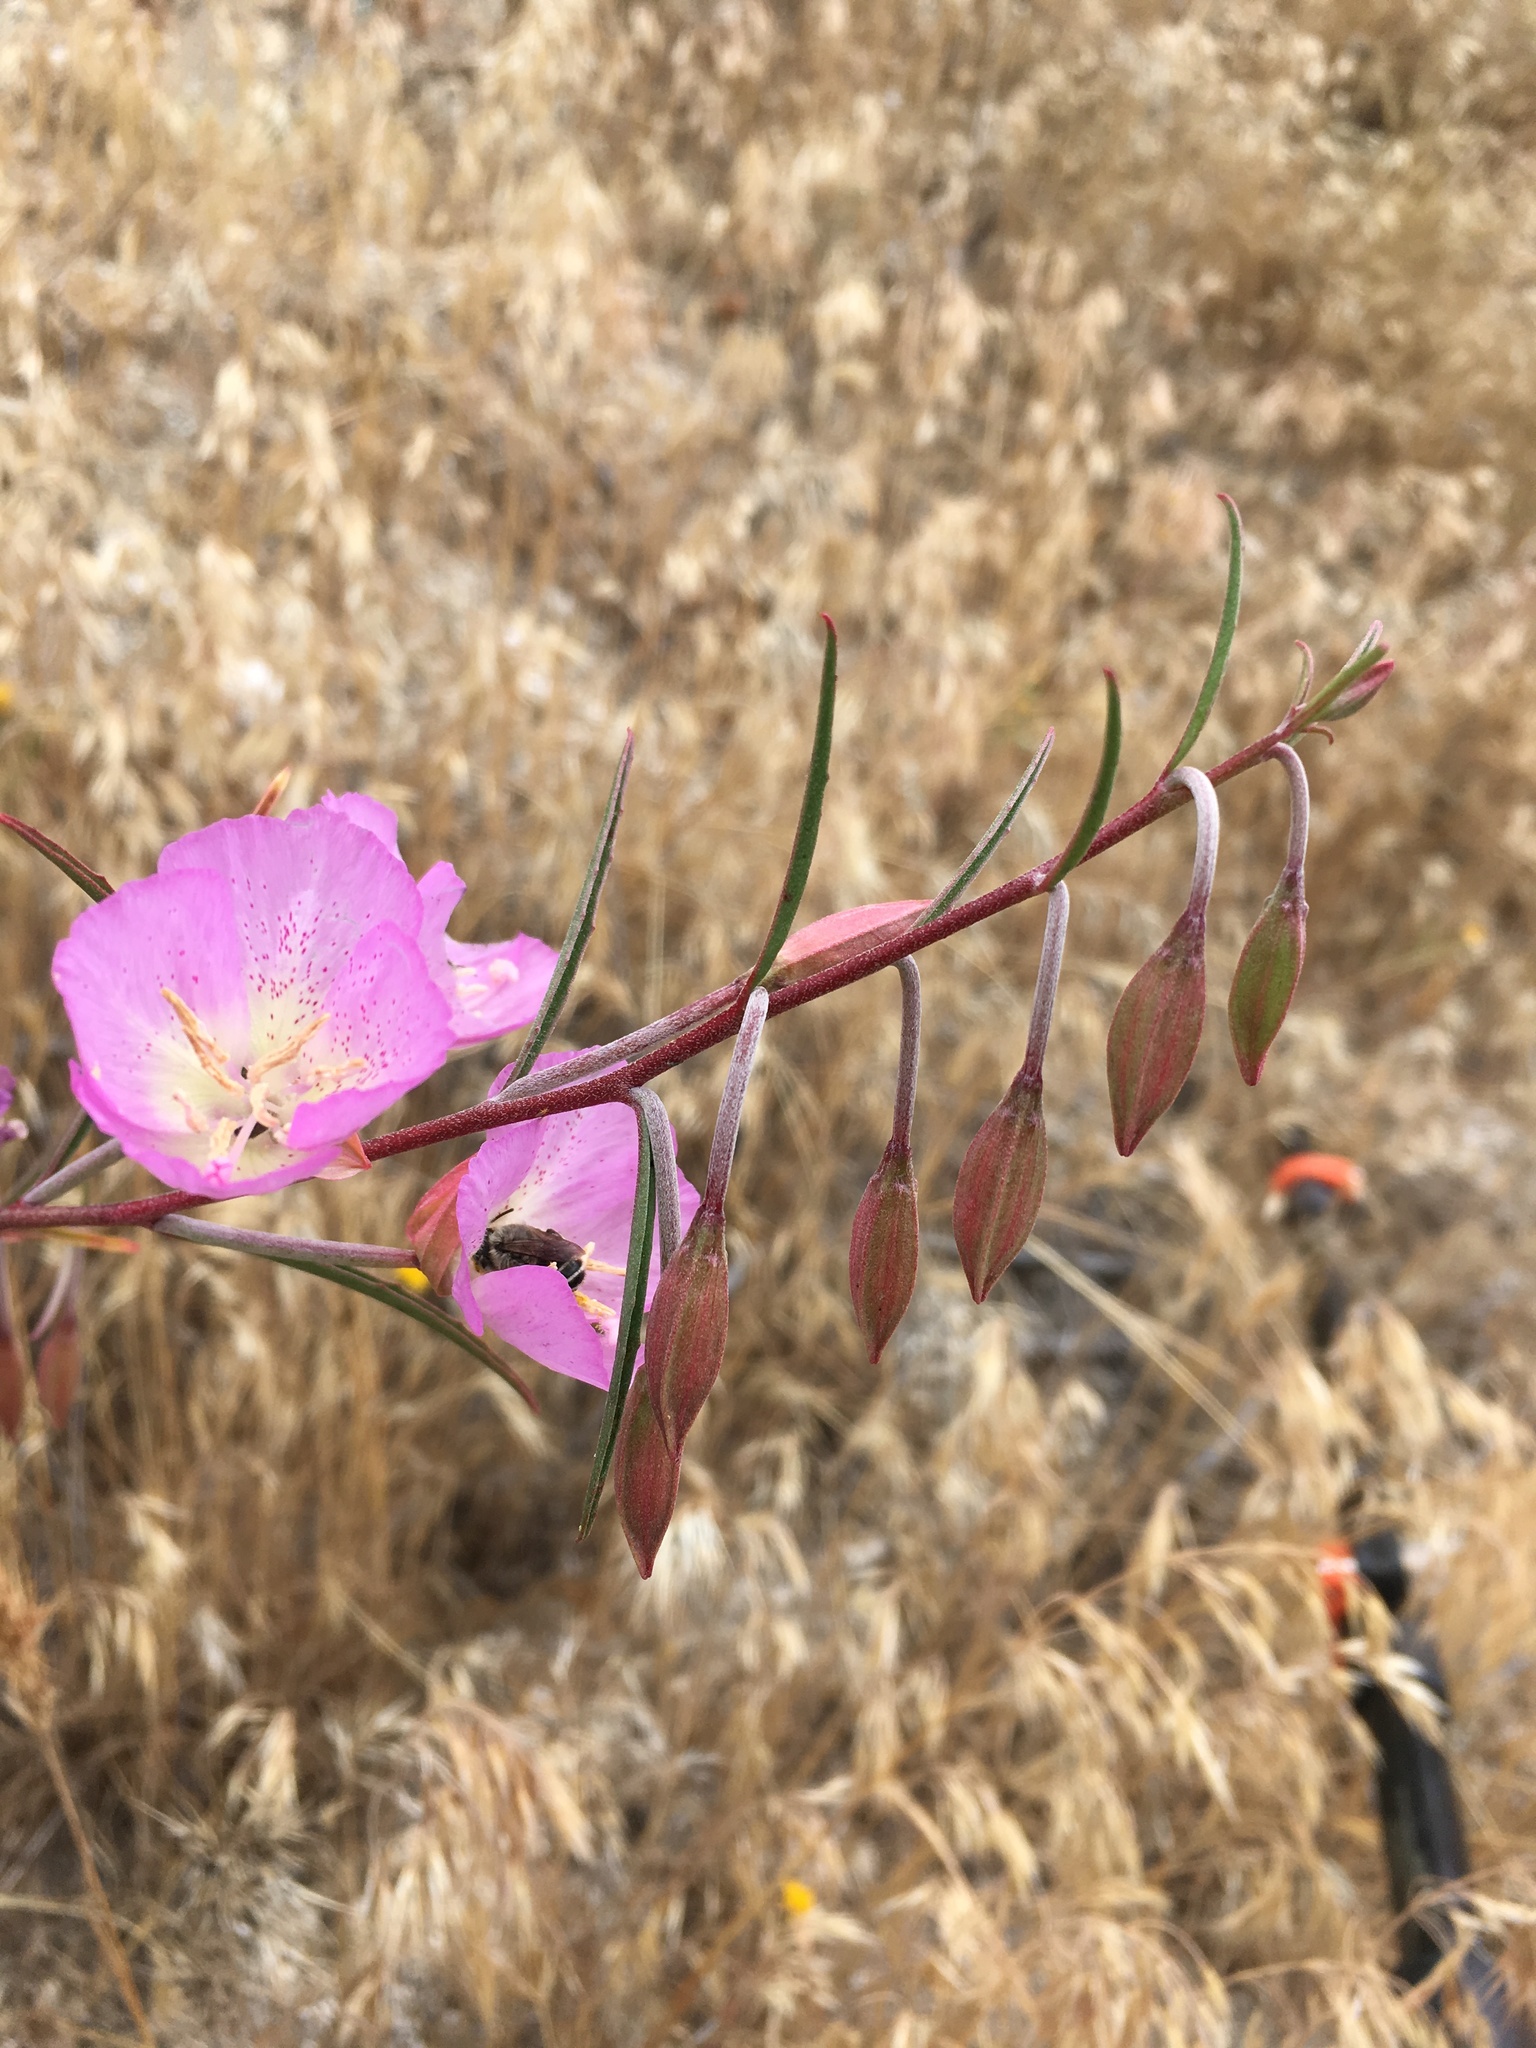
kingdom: Plantae
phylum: Tracheophyta
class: Magnoliopsida
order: Myrtales
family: Onagraceae
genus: Clarkia
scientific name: Clarkia bottae
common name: Punch-bowl godetia
